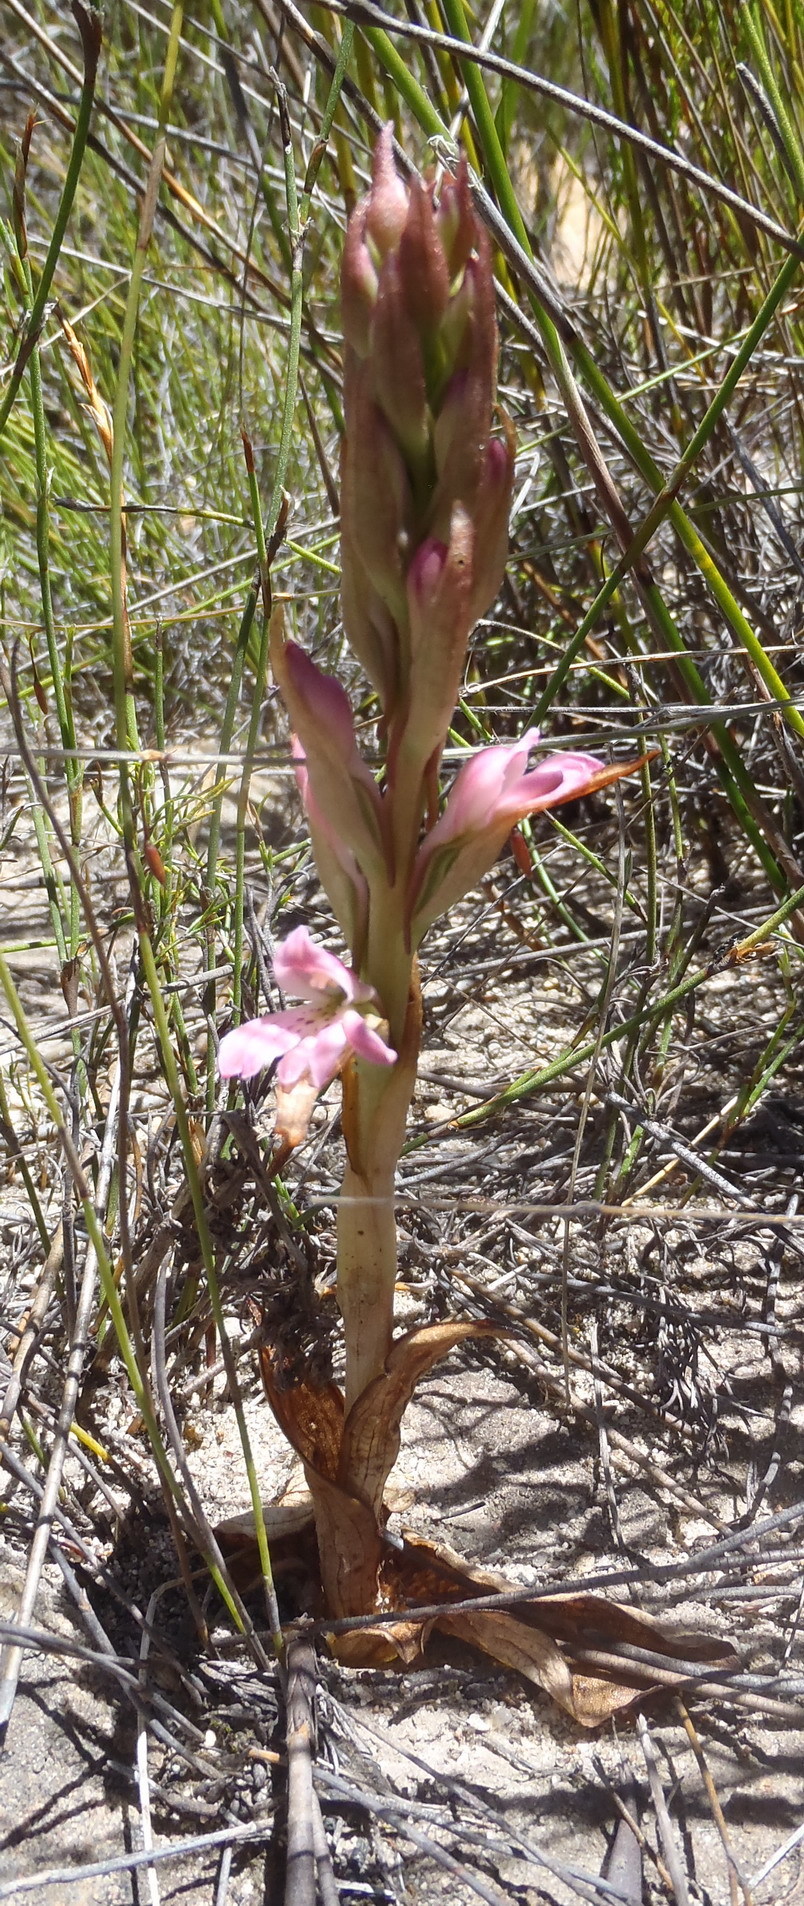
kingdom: Plantae
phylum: Tracheophyta
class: Liliopsida
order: Asparagales
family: Orchidaceae
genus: Satyrium
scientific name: Satyrium erectum
